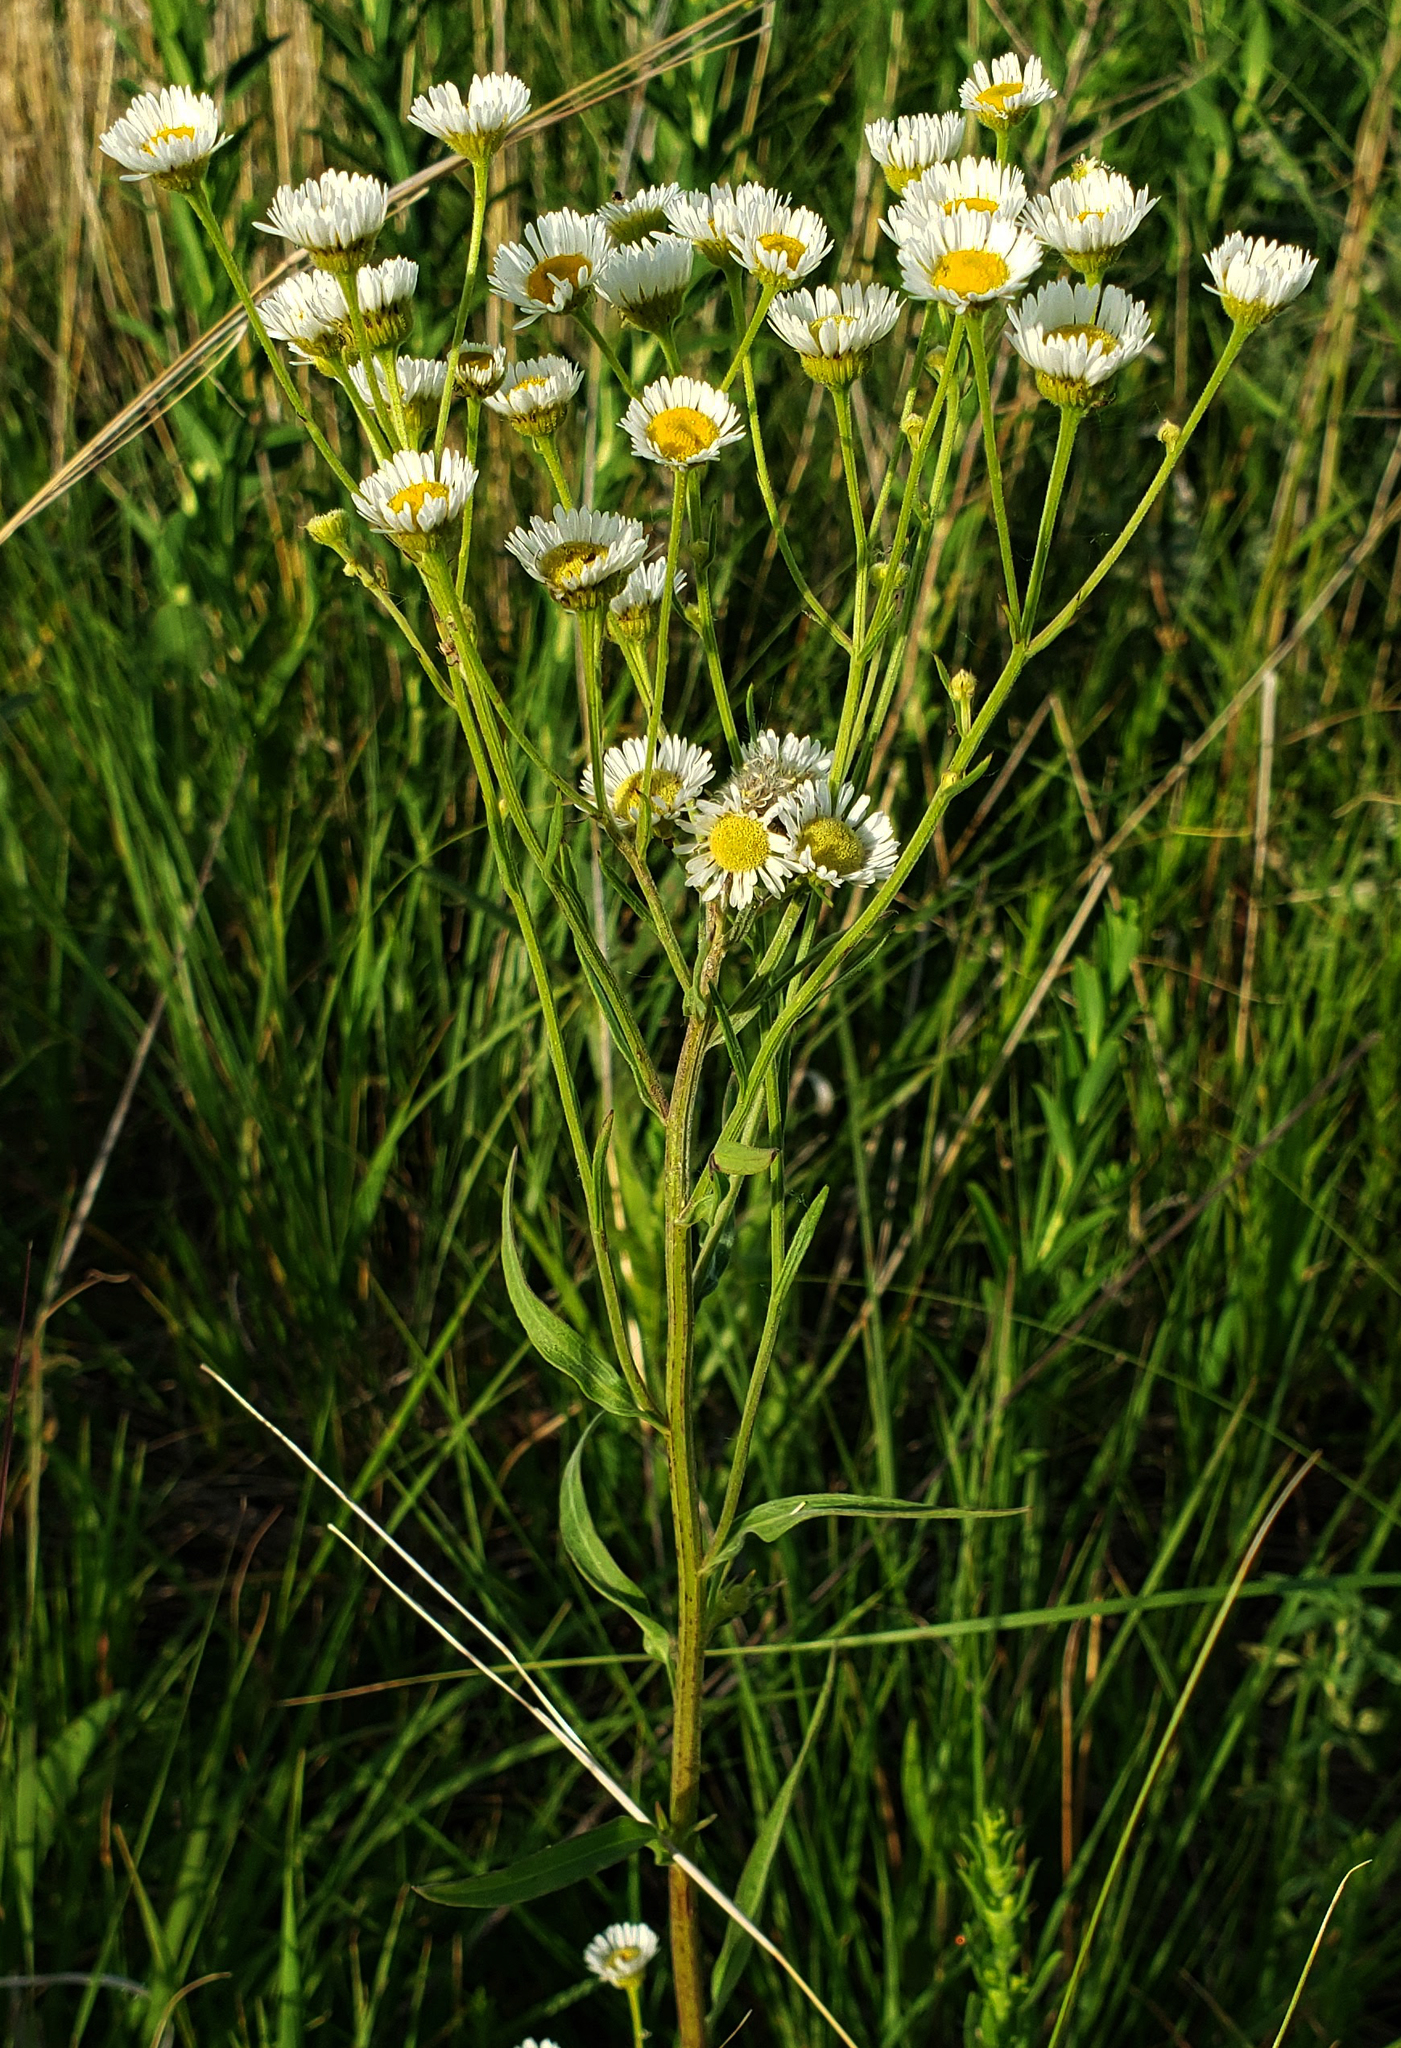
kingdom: Plantae
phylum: Tracheophyta
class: Magnoliopsida
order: Asterales
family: Asteraceae
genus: Erigeron
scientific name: Erigeron strigosus
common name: Common eastern fleabane
